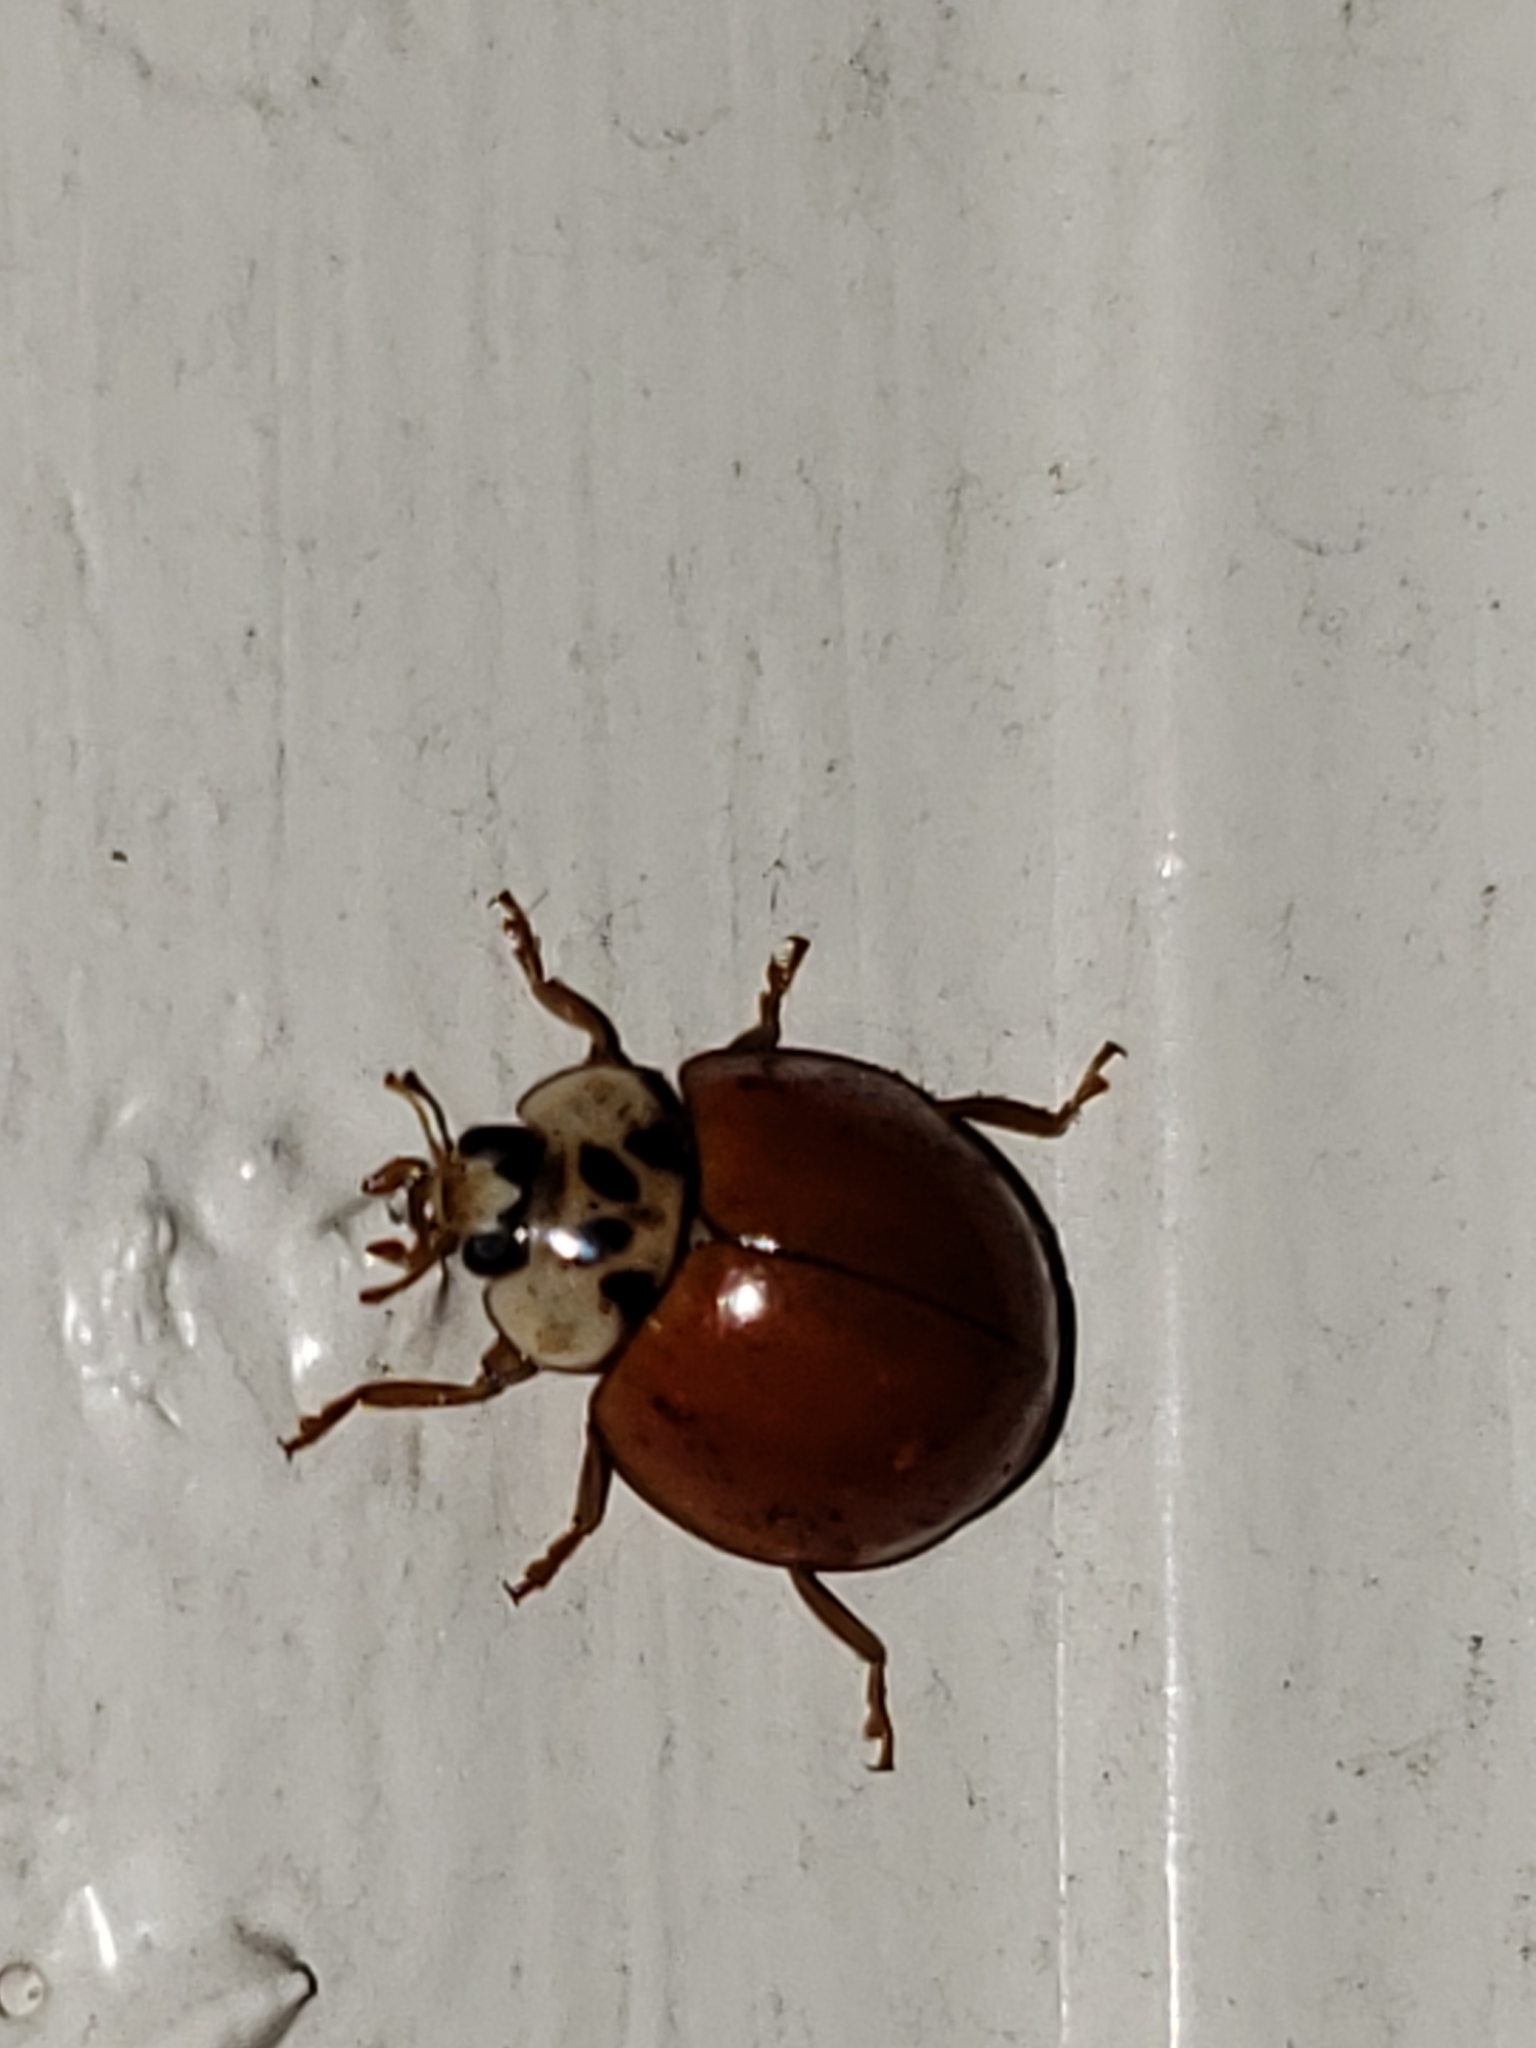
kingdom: Animalia
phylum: Arthropoda
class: Insecta
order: Coleoptera
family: Coccinellidae
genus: Harmonia
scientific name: Harmonia axyridis
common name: Harlequin ladybird
